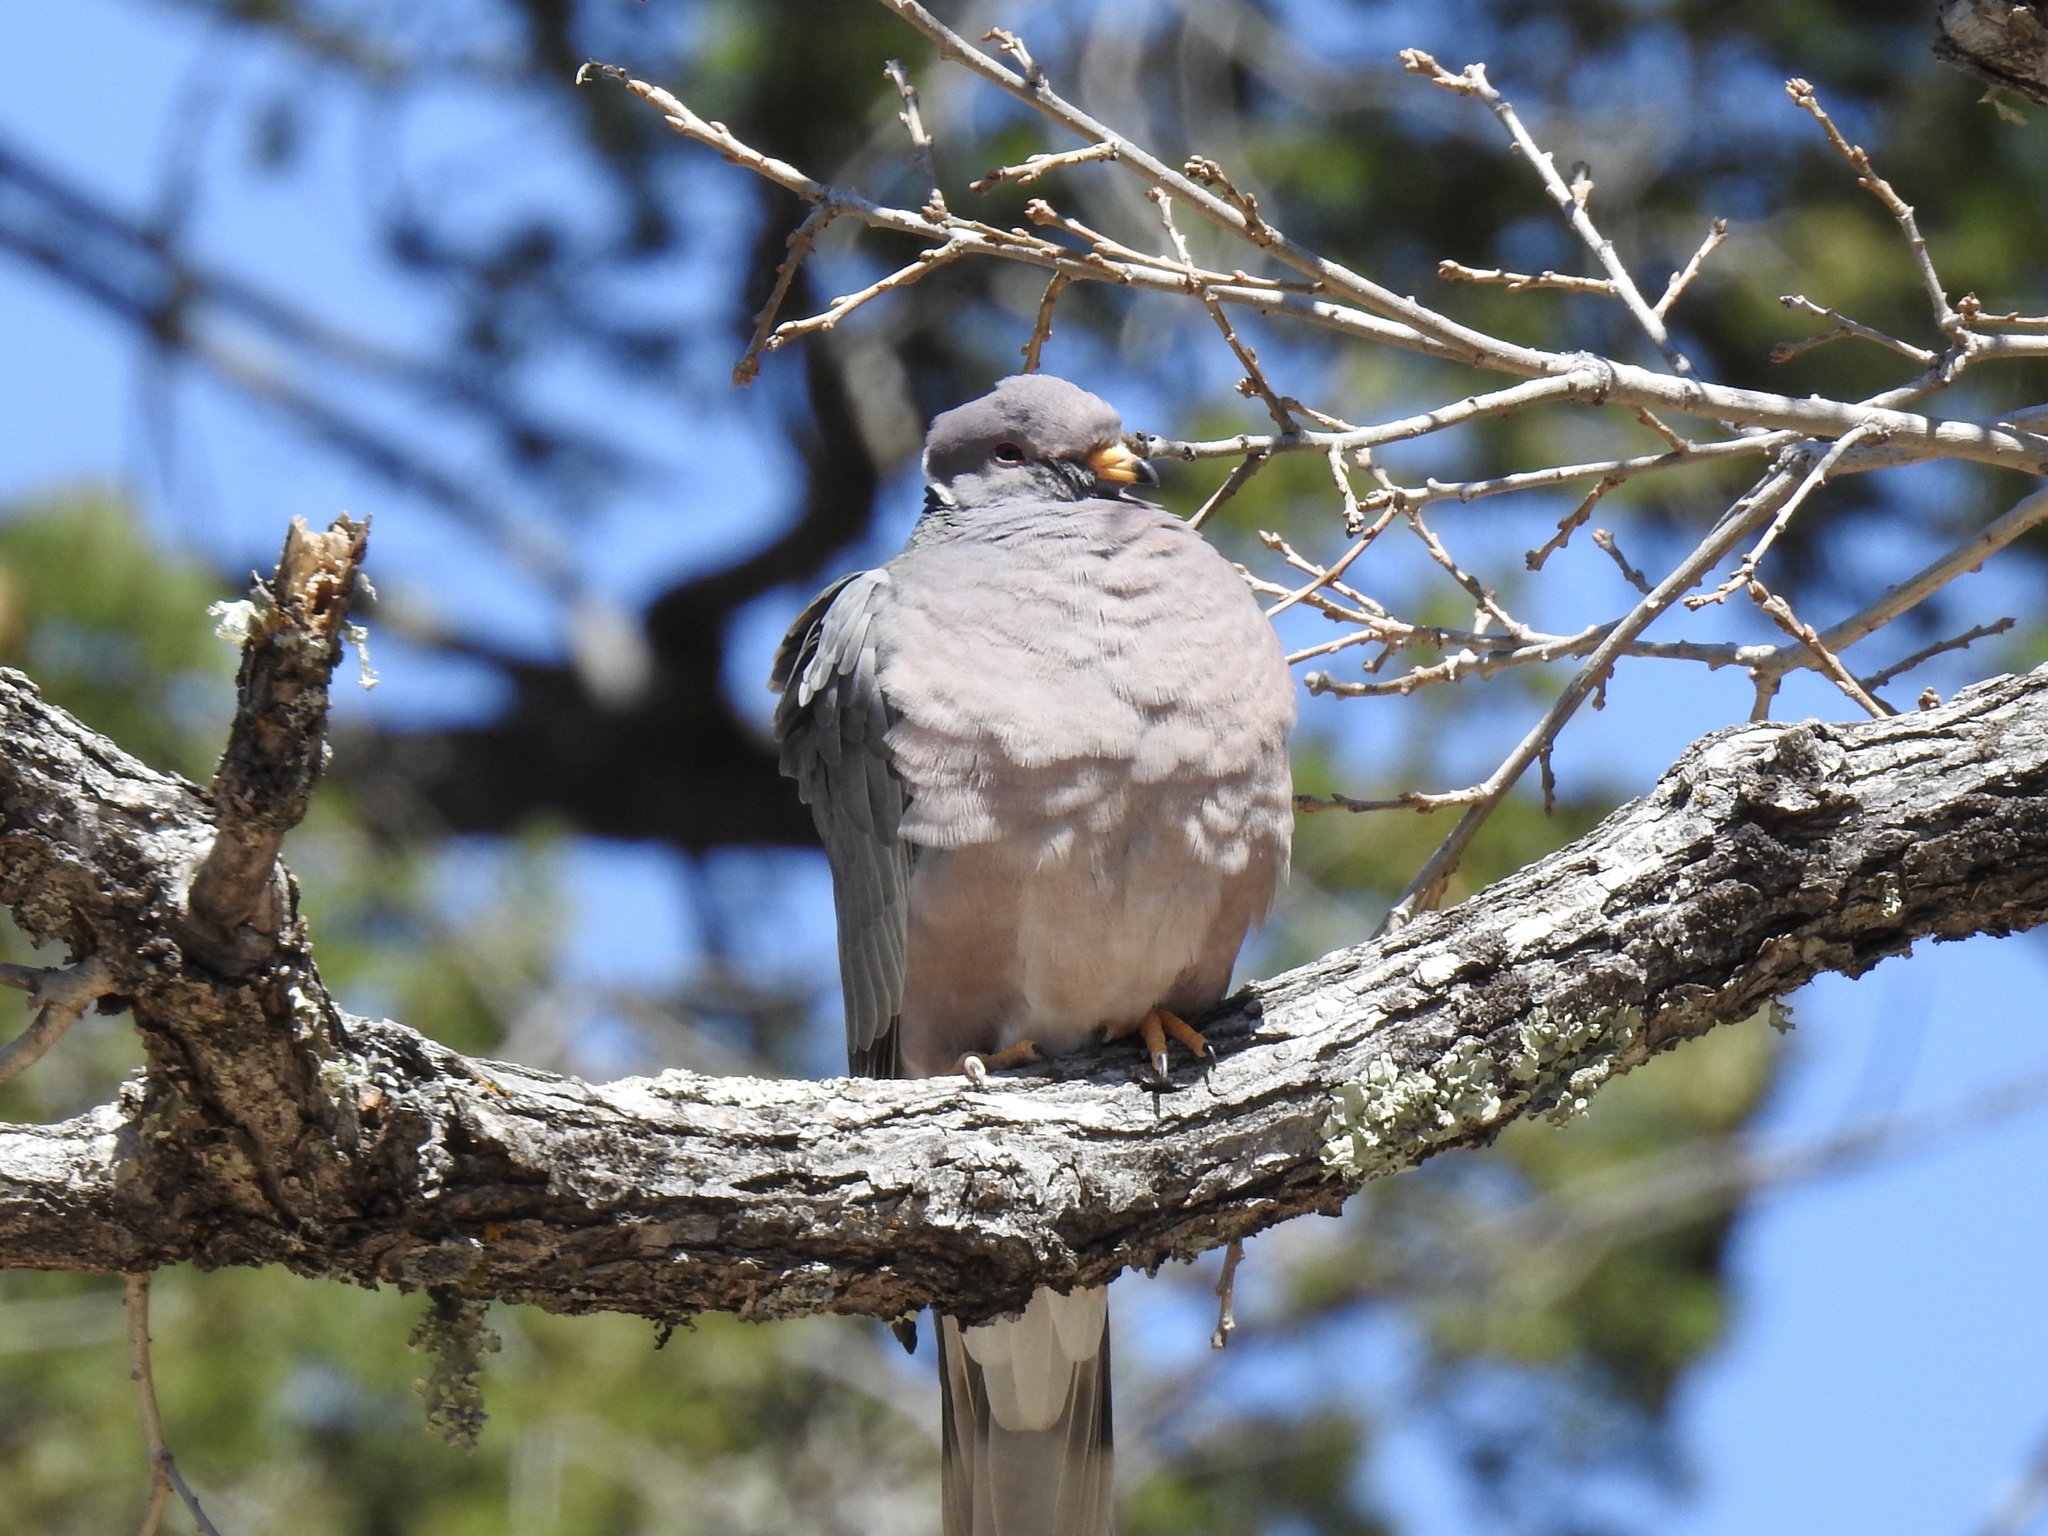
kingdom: Animalia
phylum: Chordata
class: Aves
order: Columbiformes
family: Columbidae
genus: Patagioenas
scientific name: Patagioenas fasciata
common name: Band-tailed pigeon
